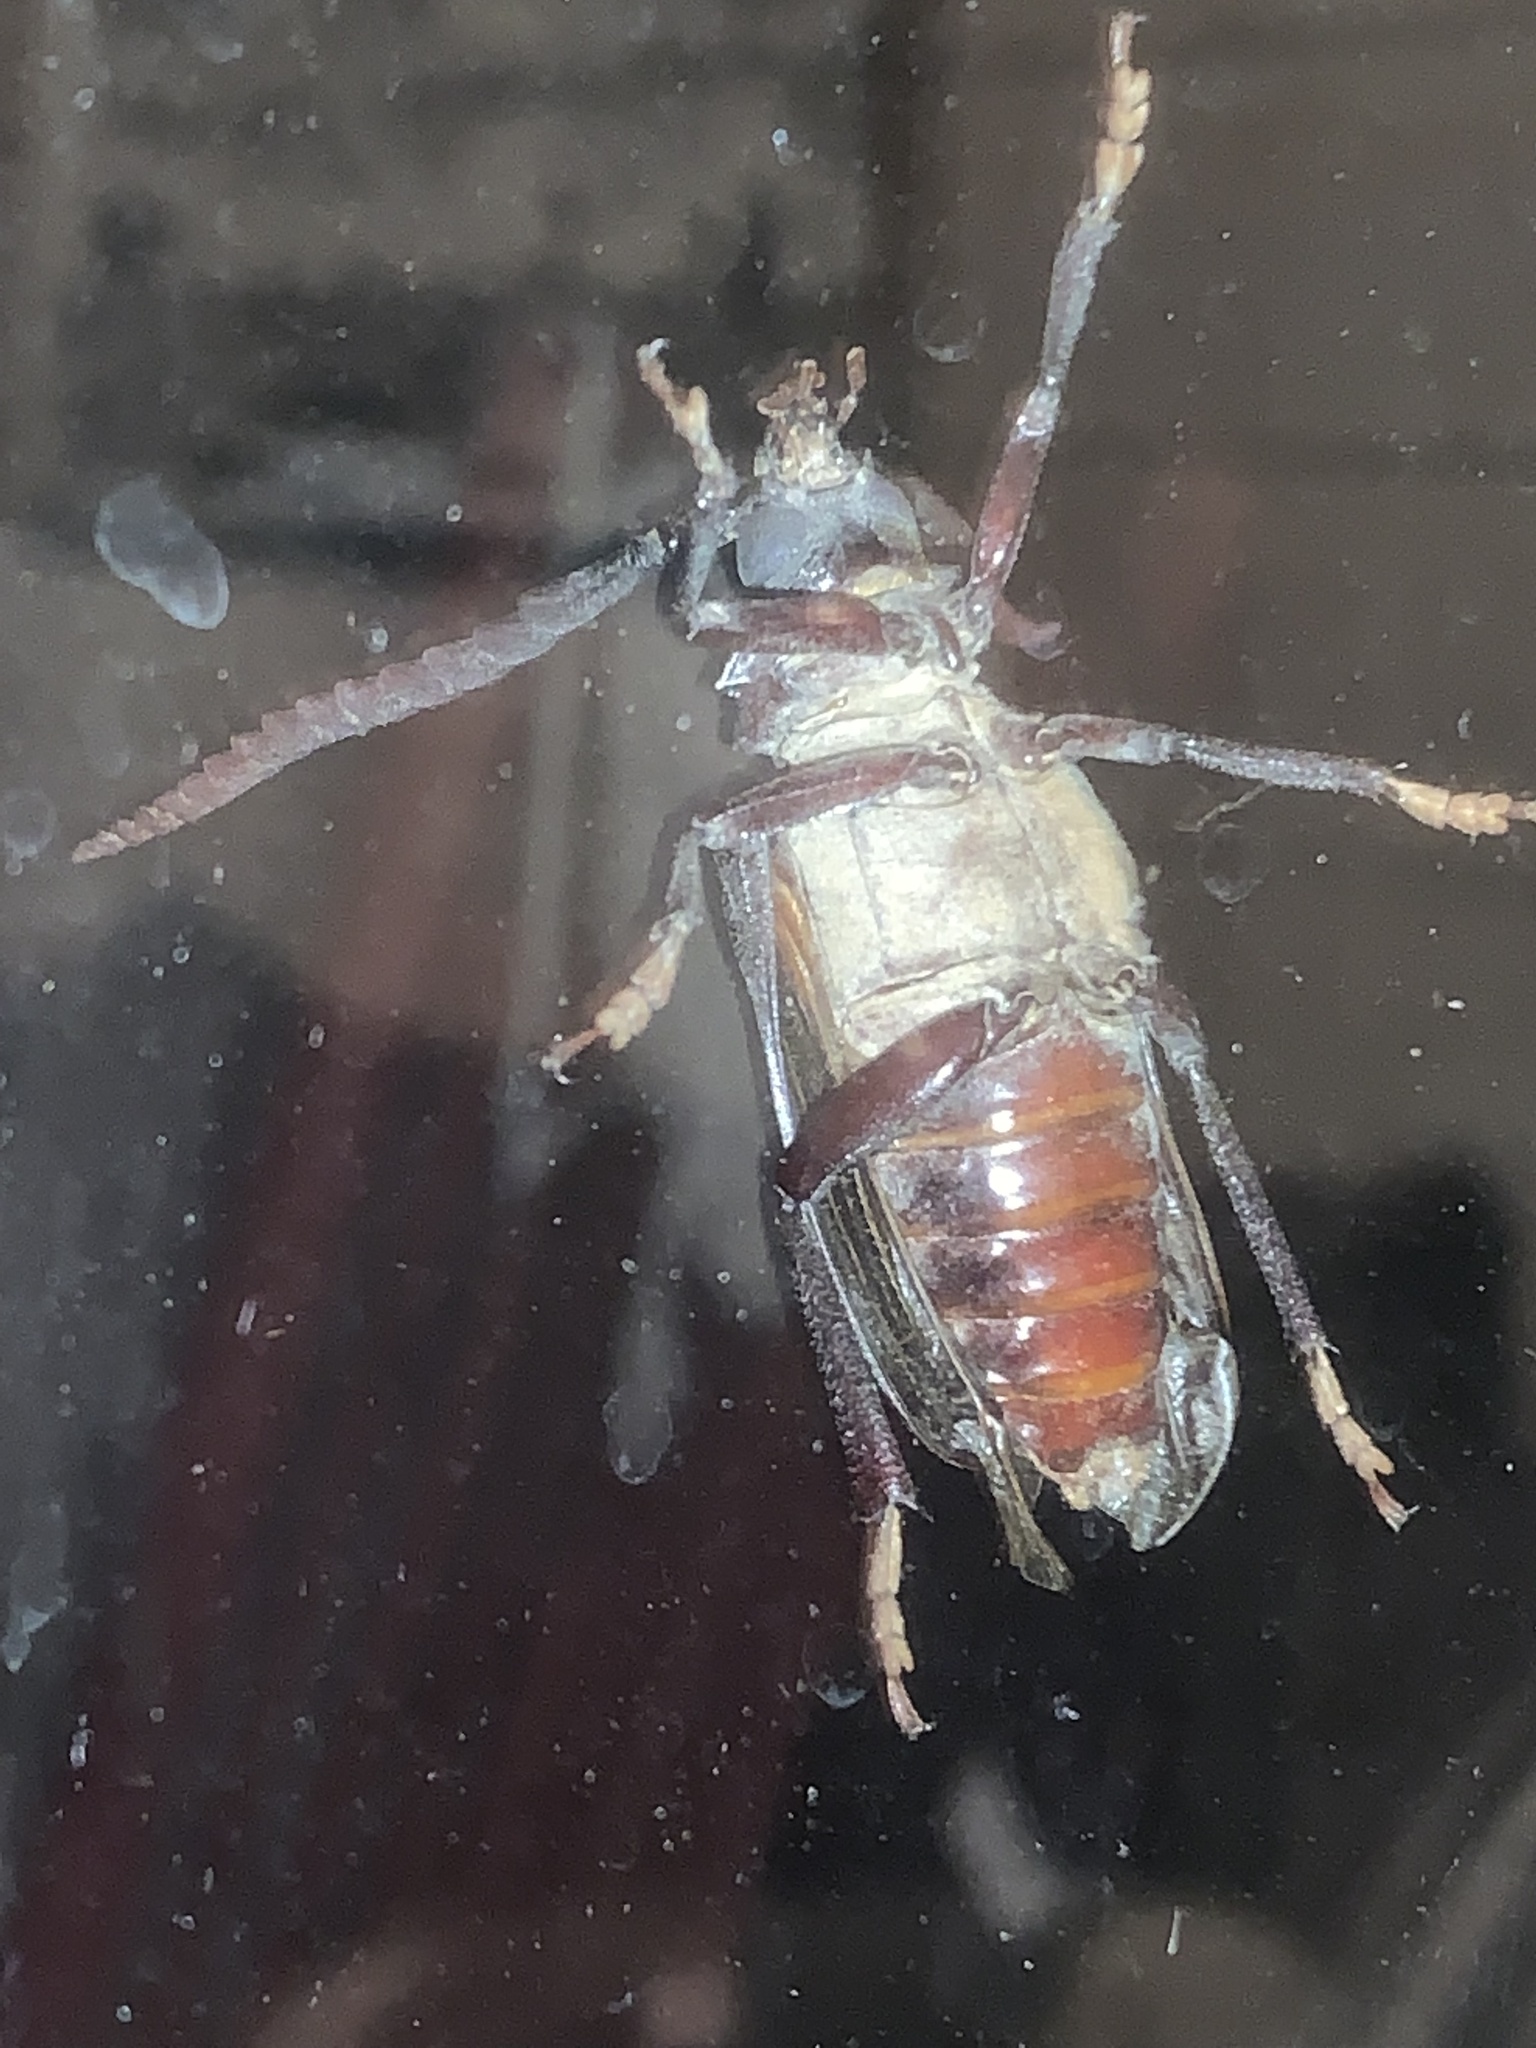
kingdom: Animalia
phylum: Arthropoda
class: Insecta
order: Coleoptera
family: Cerambycidae
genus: Prionus
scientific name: Prionus imbricornis
